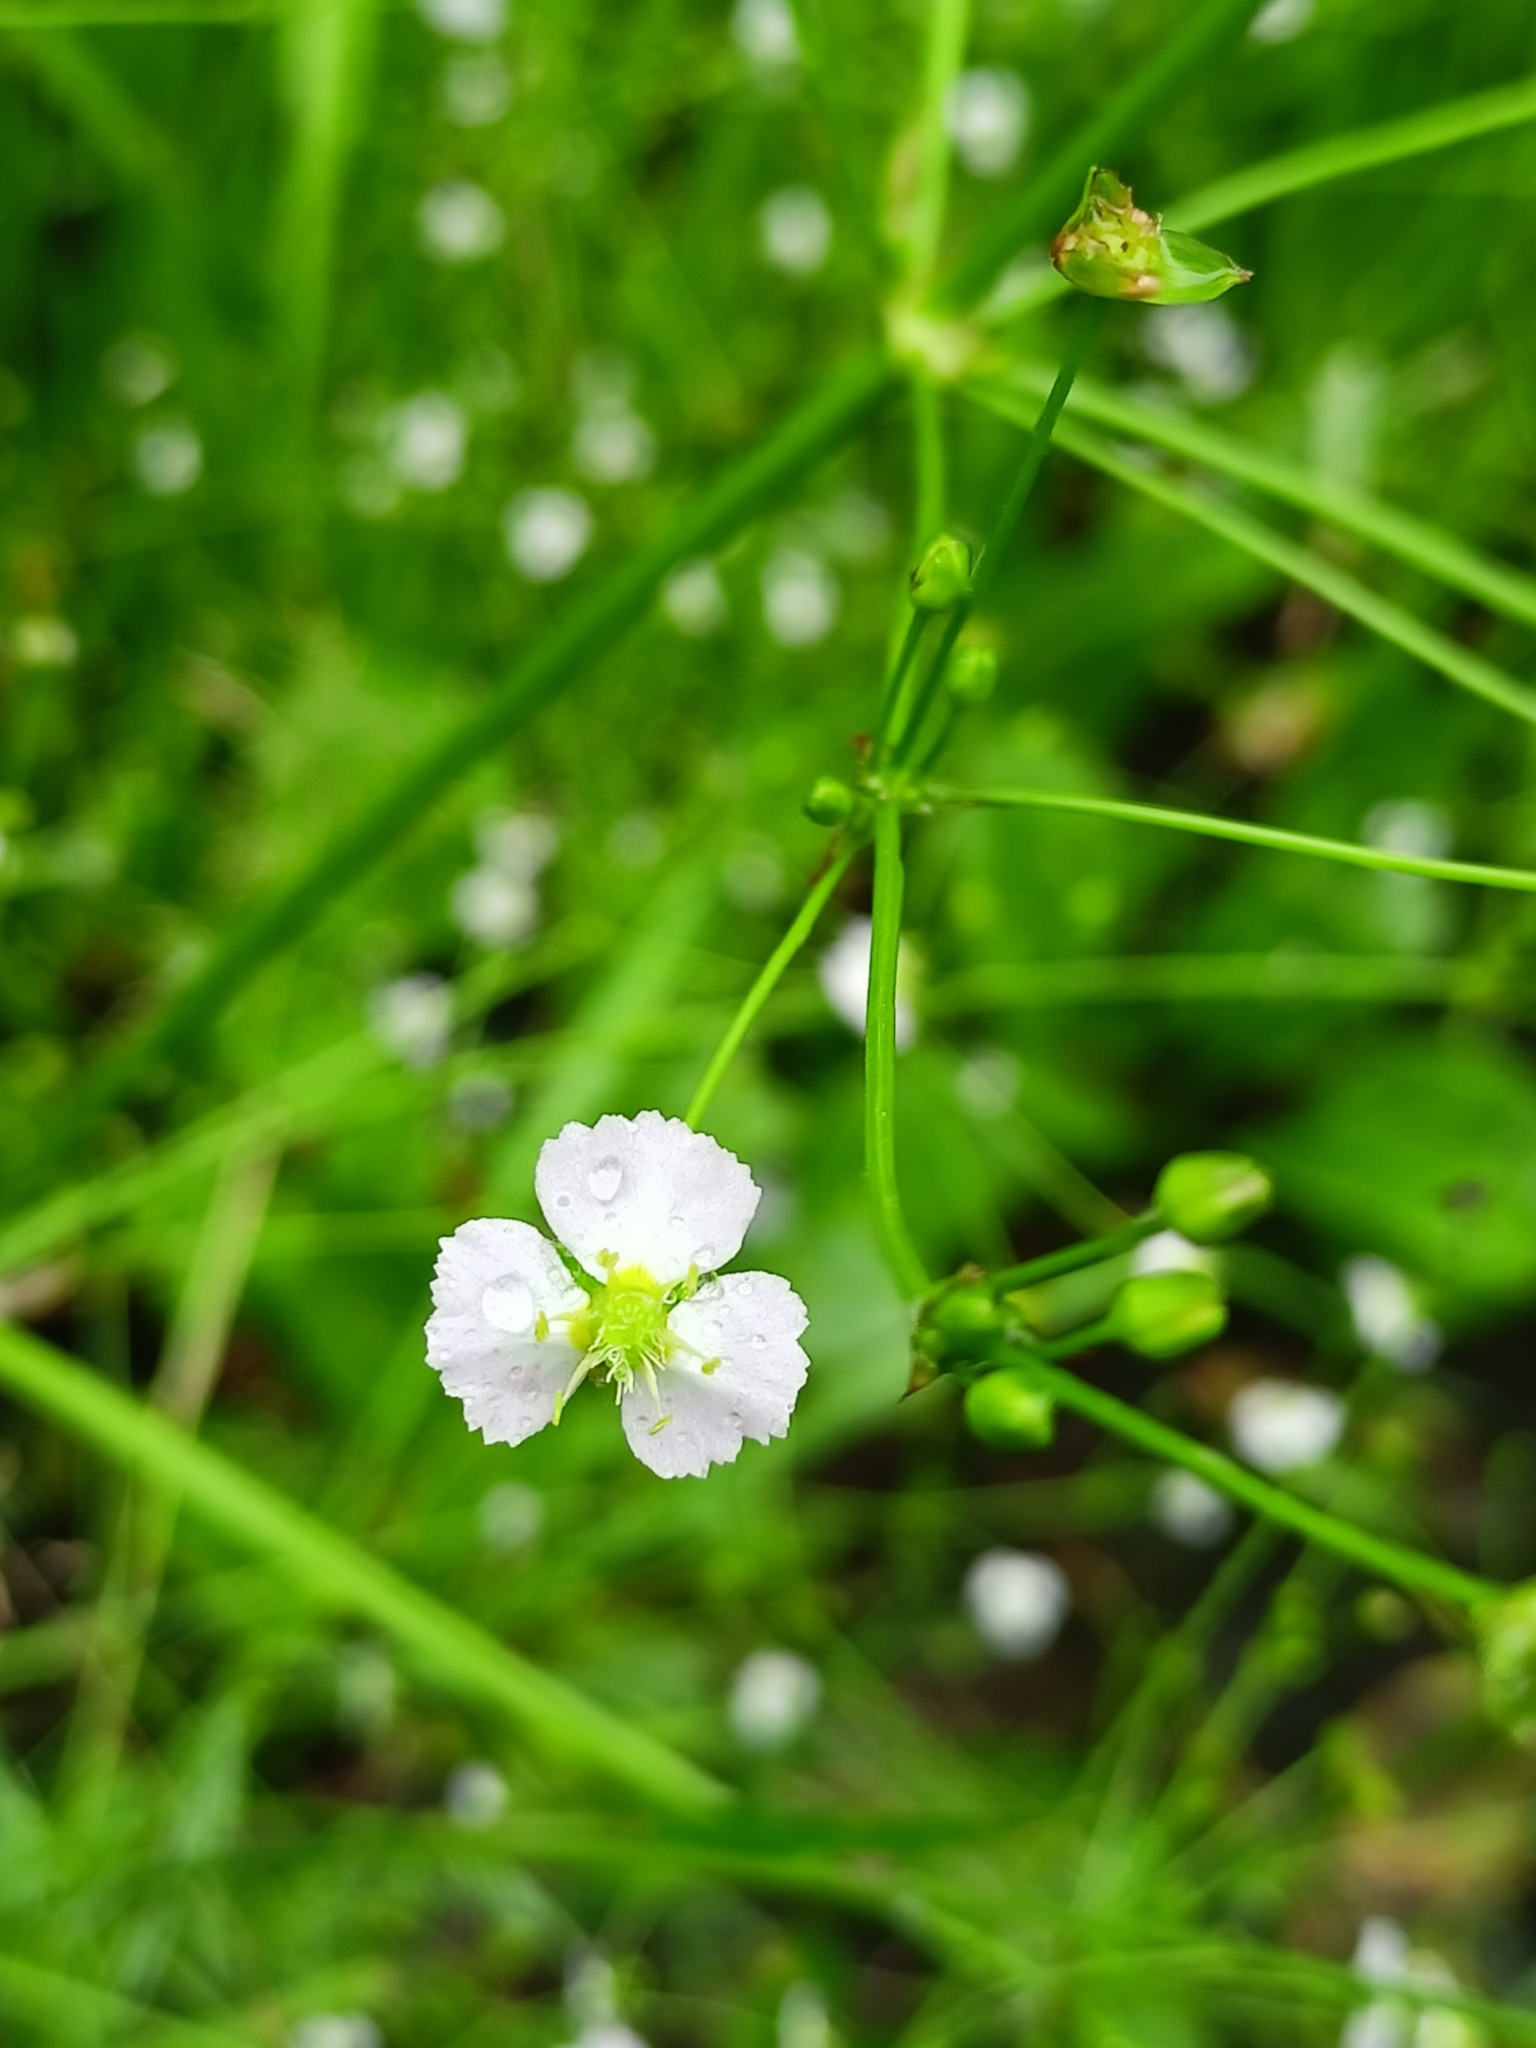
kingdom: Plantae
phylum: Tracheophyta
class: Liliopsida
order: Alismatales
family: Alismataceae
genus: Alisma
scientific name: Alisma plantago-aquatica
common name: Water-plantain
